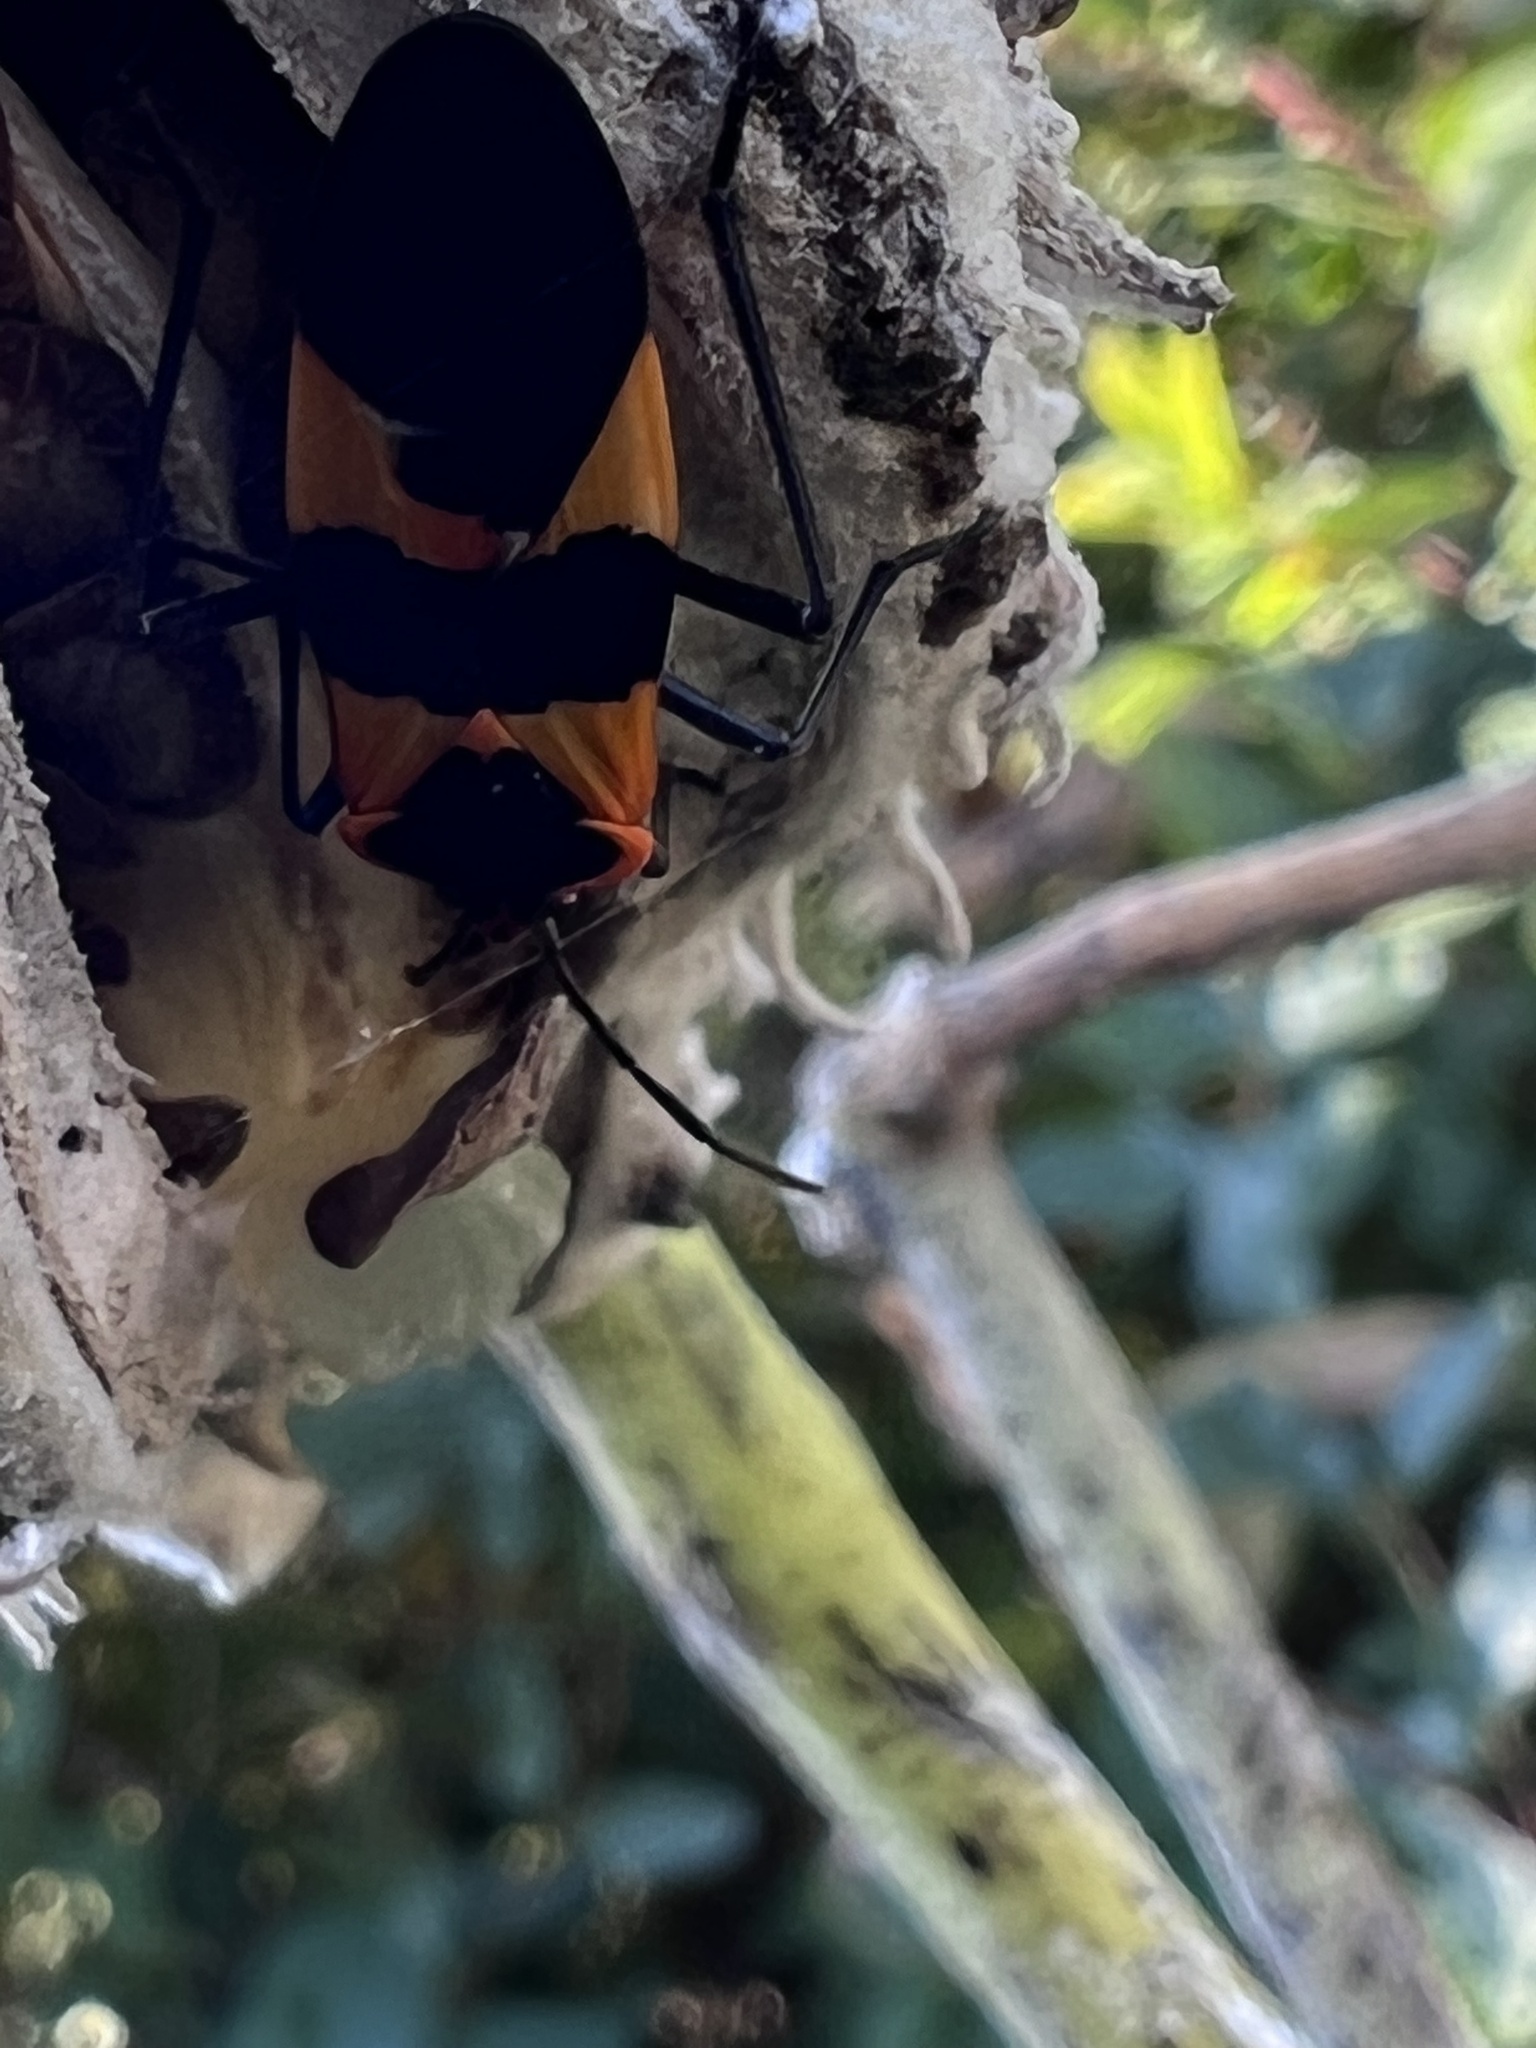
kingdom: Animalia
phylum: Arthropoda
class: Insecta
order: Hemiptera
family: Lygaeidae
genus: Oncopeltus
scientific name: Oncopeltus fasciatus
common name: Large milkweed bug
